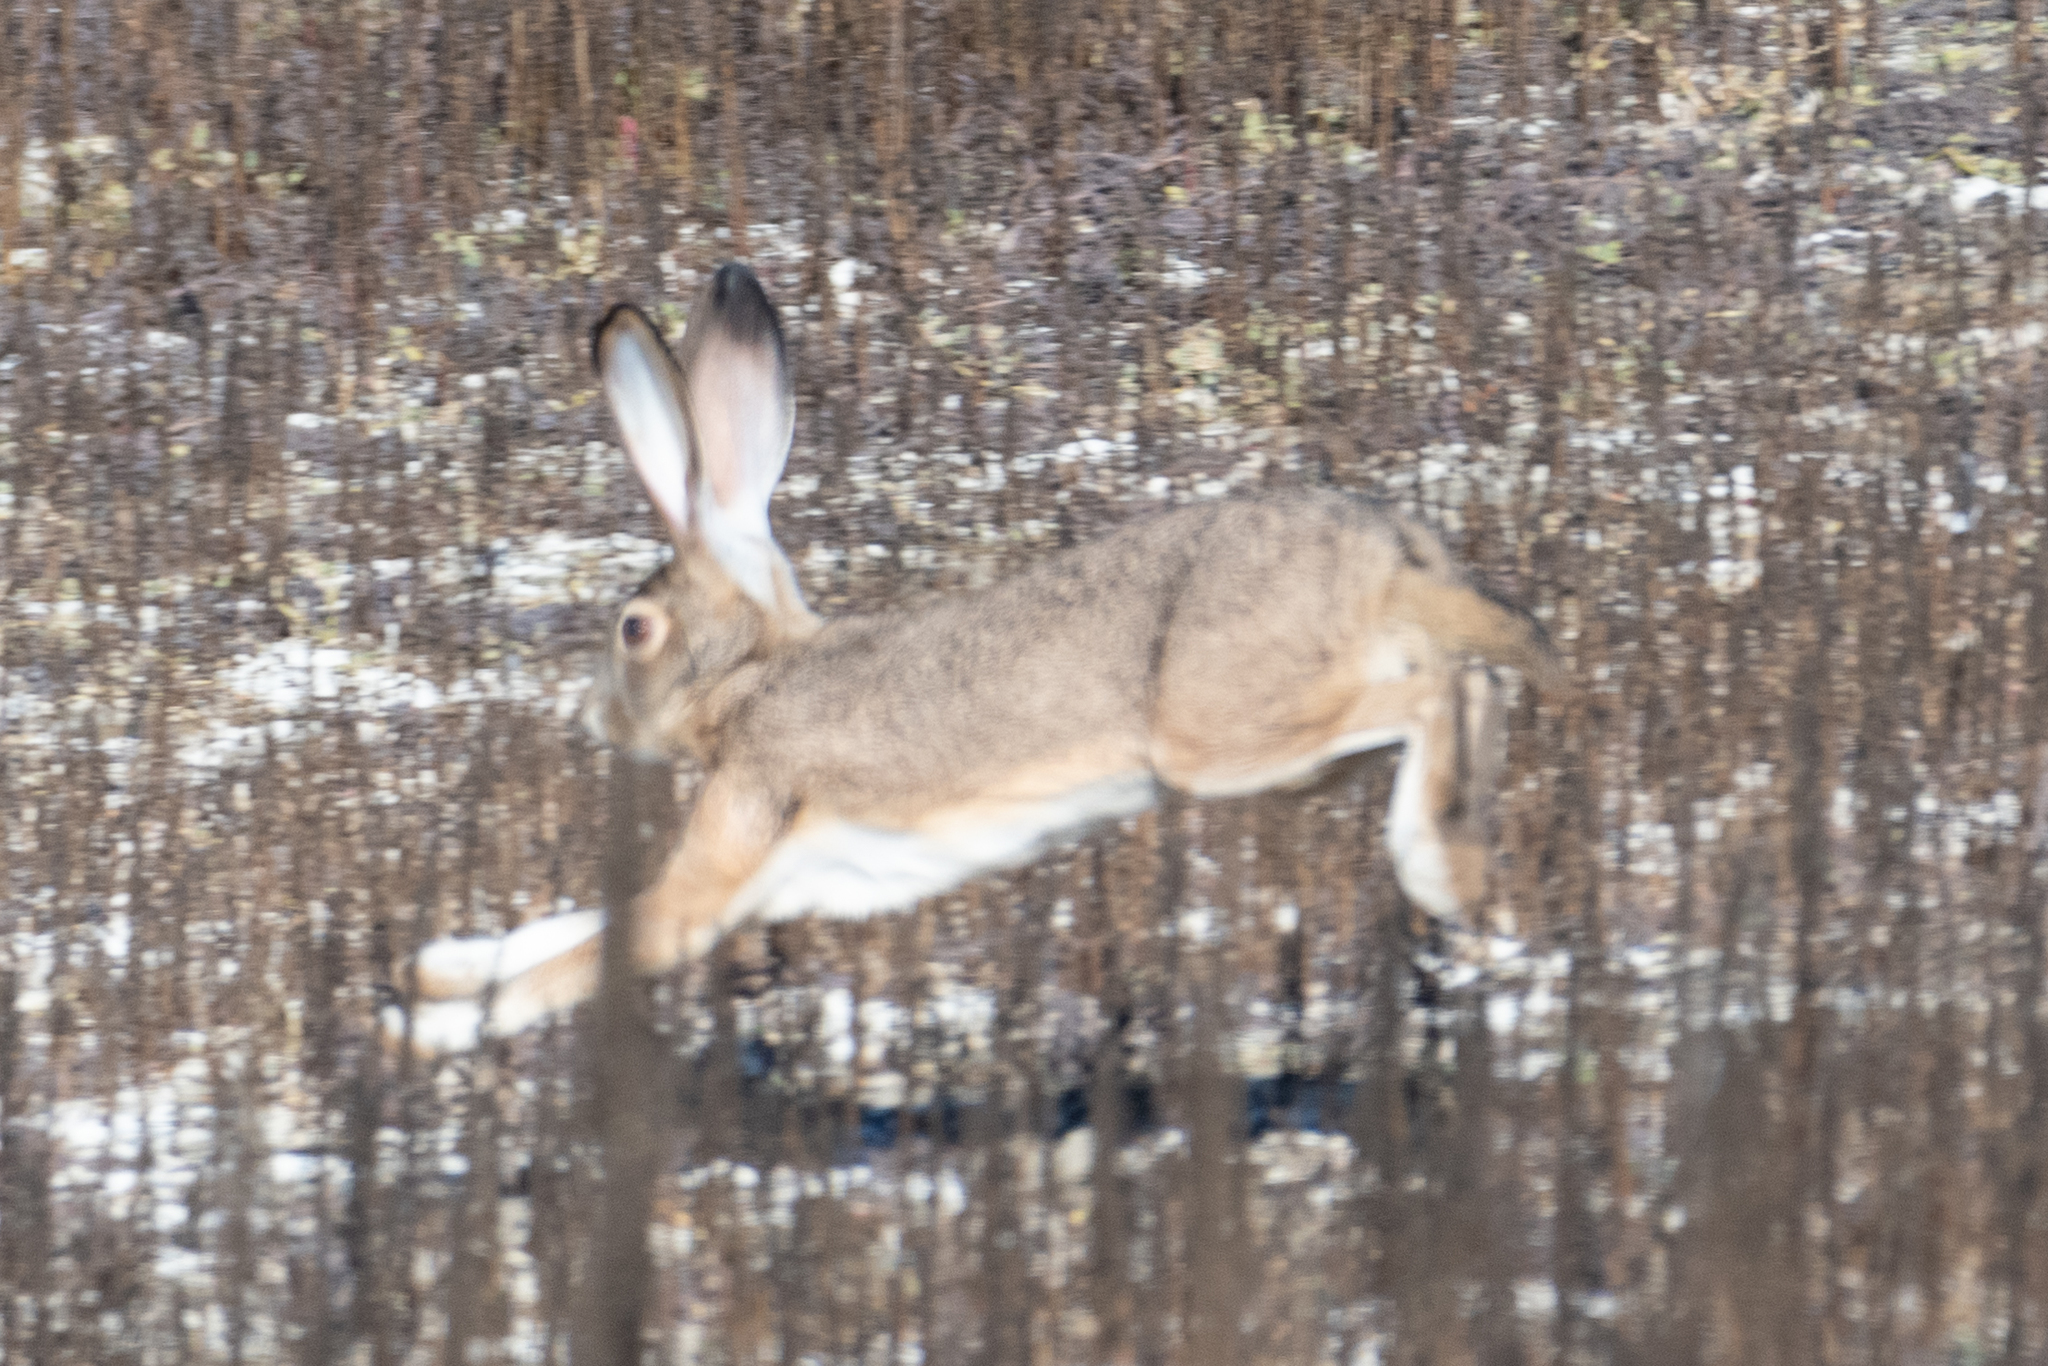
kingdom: Animalia
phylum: Chordata
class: Mammalia
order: Lagomorpha
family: Leporidae
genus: Lepus
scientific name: Lepus californicus
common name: Black-tailed jackrabbit
